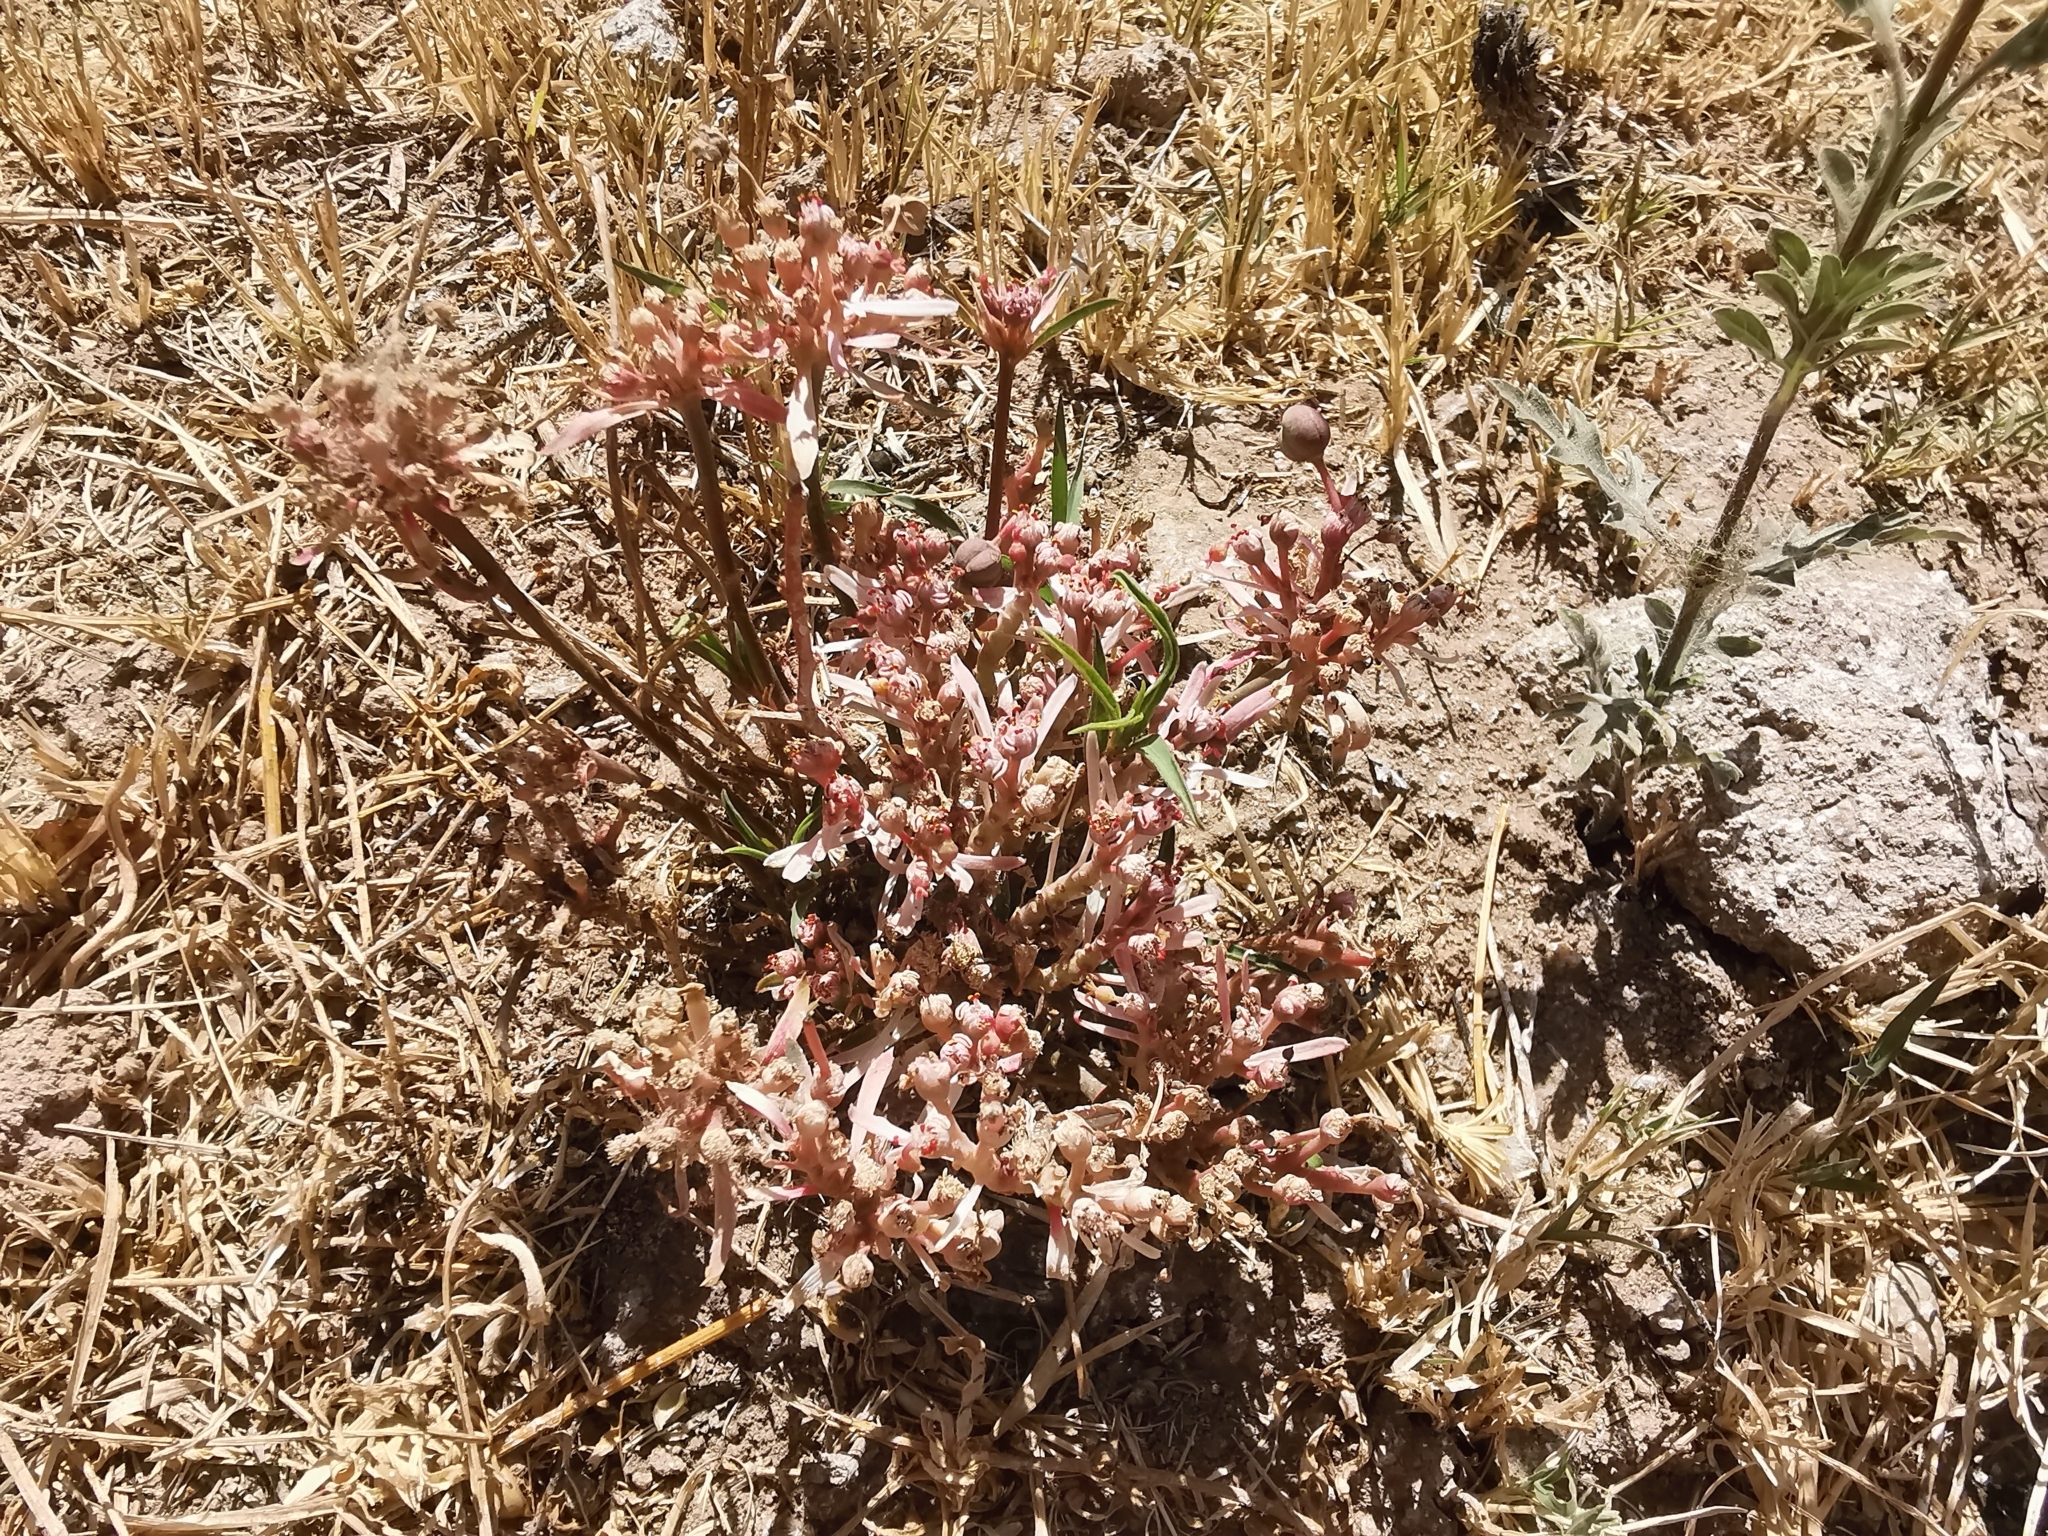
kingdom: Plantae
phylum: Tracheophyta
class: Magnoliopsida
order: Malpighiales
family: Euphorbiaceae
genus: Euphorbia
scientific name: Euphorbia radians
